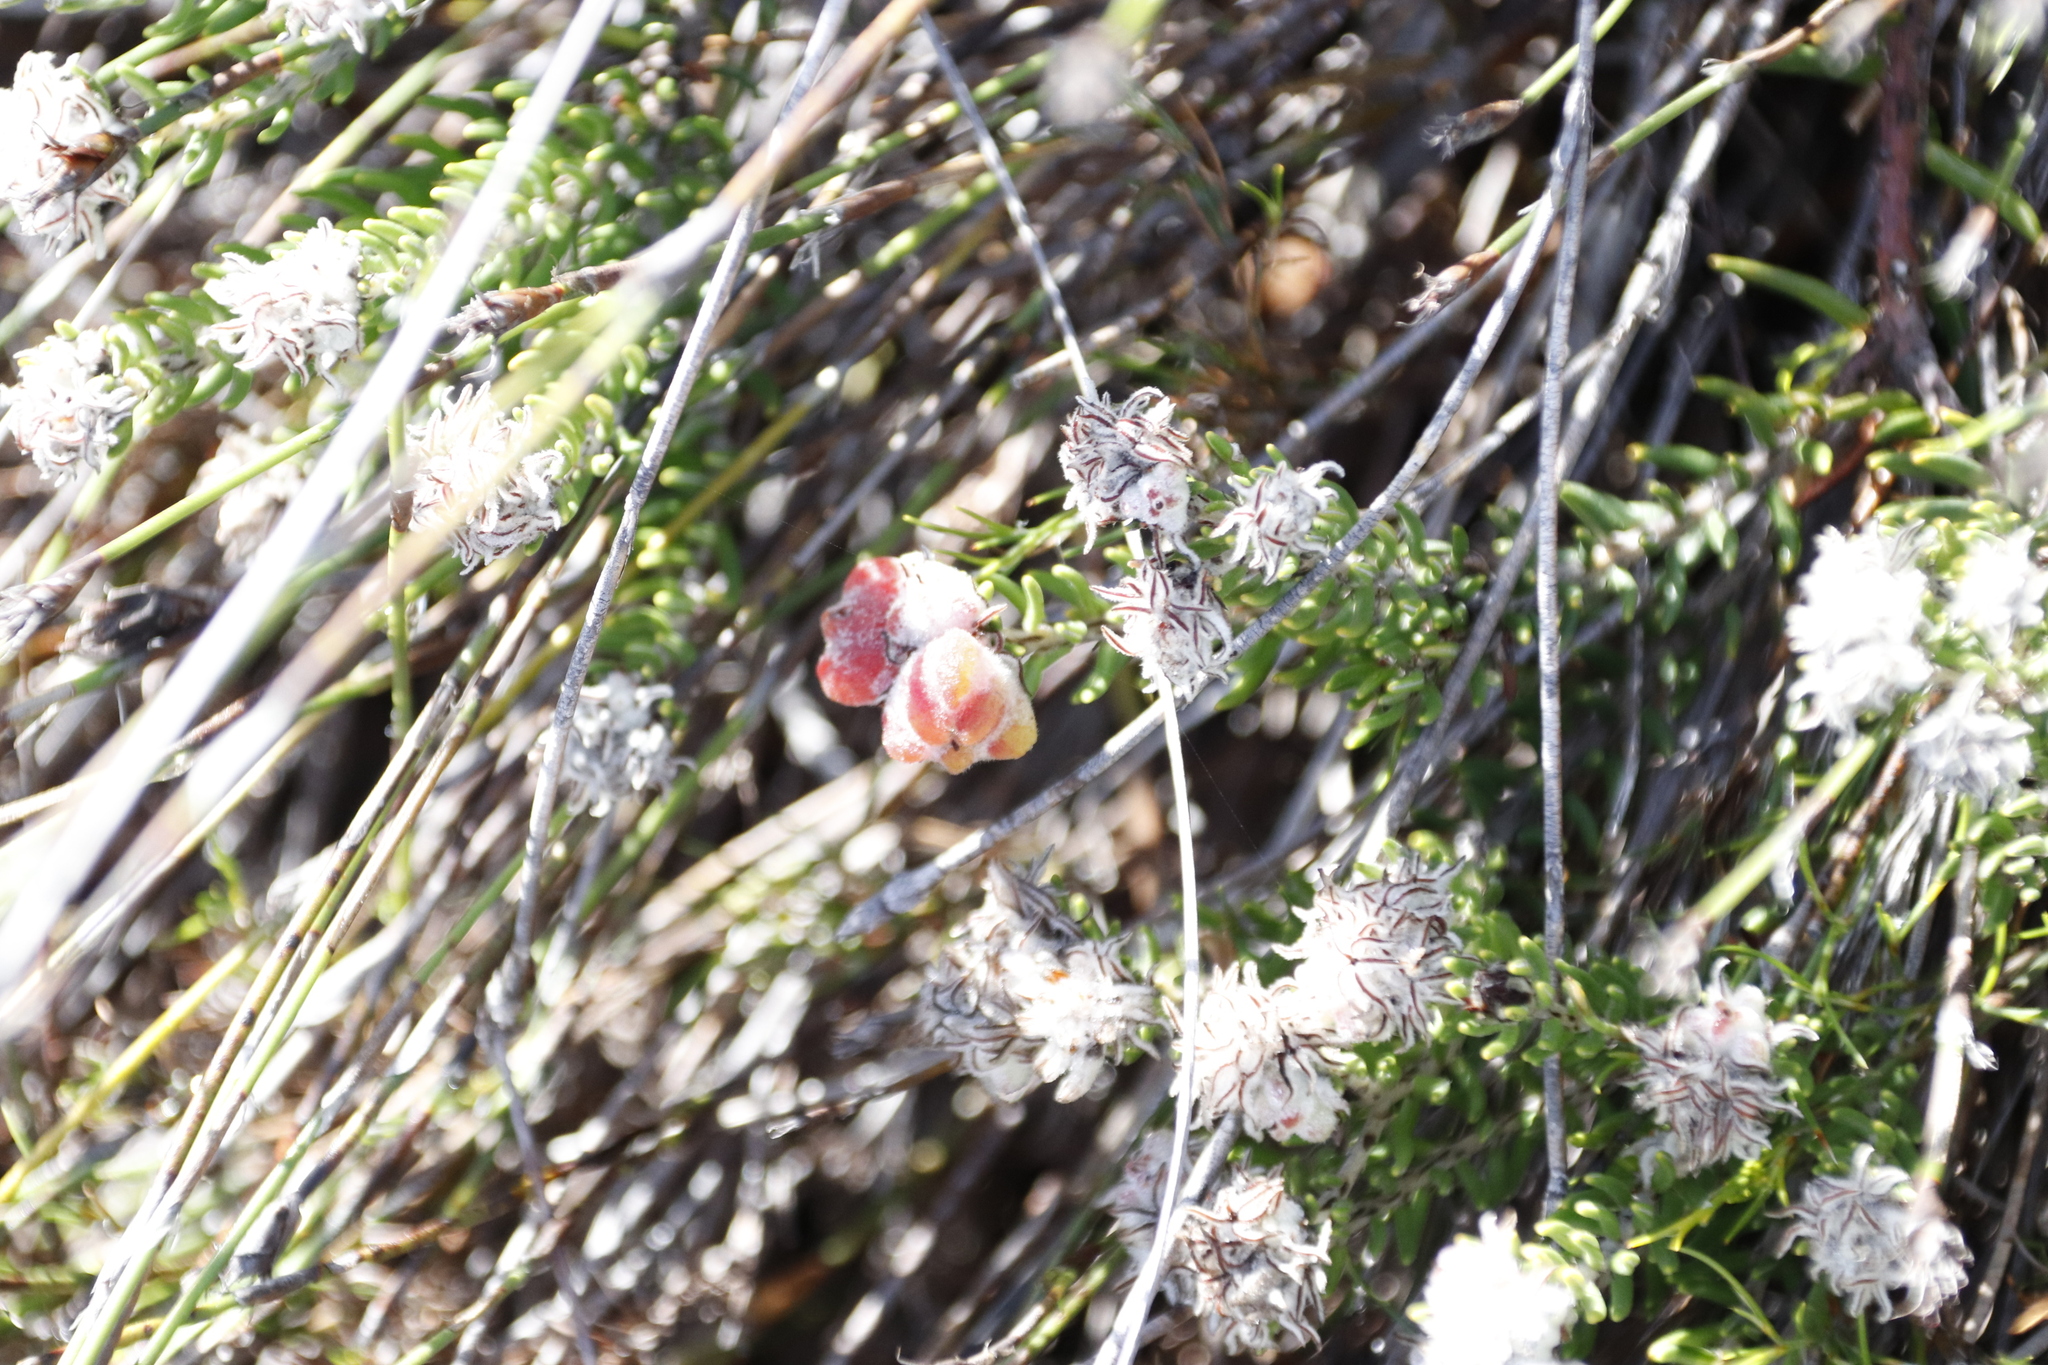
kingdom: Plantae
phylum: Tracheophyta
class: Magnoliopsida
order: Rosales
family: Rhamnaceae
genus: Trichocephalus
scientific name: Trichocephalus stipularis
